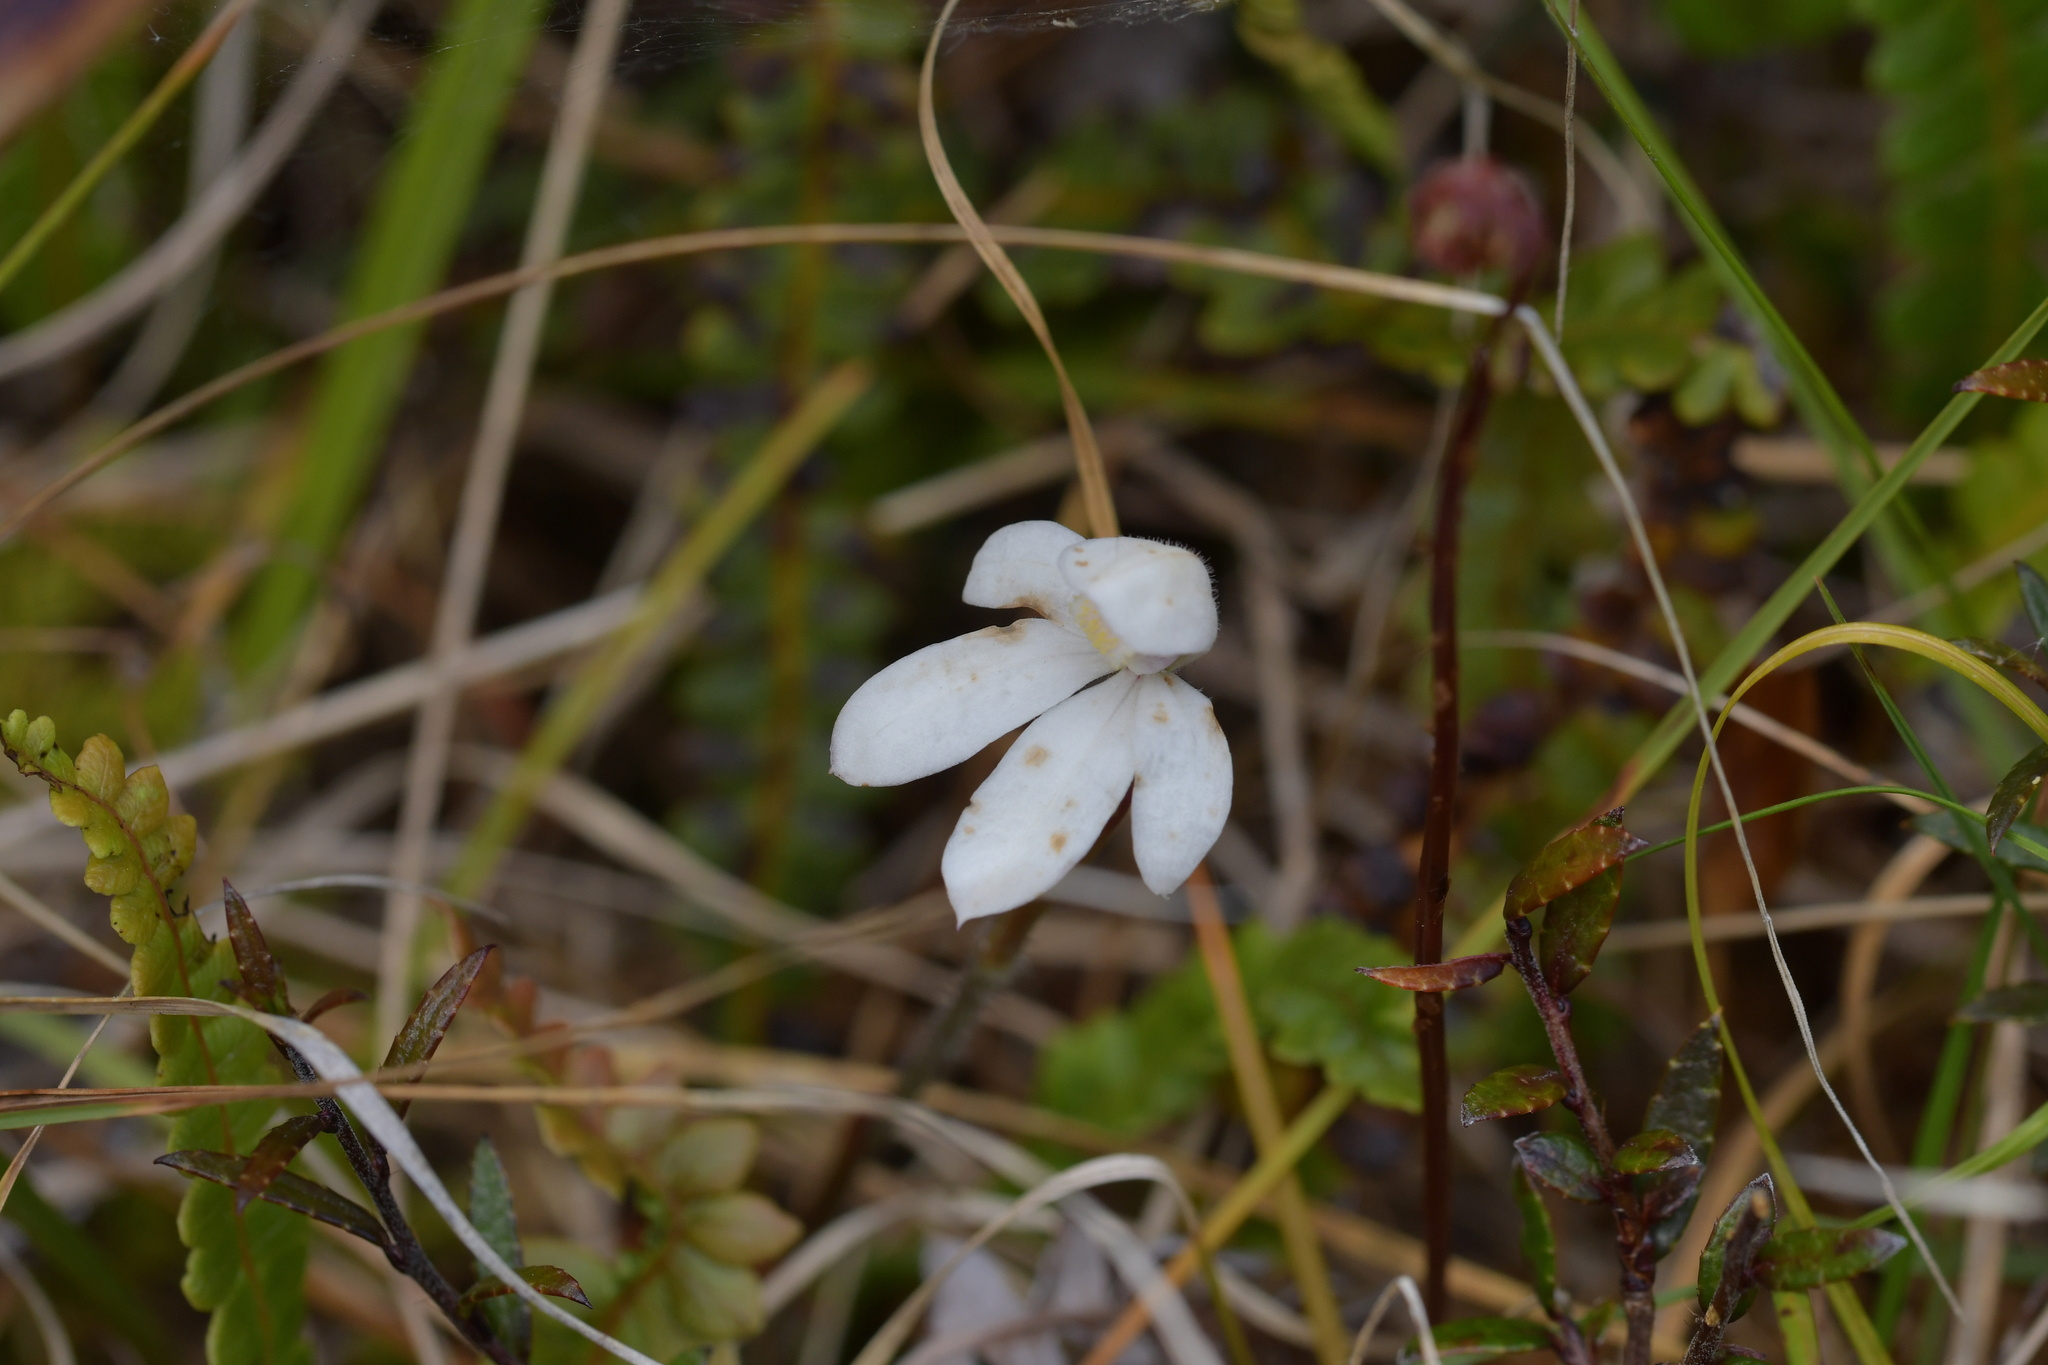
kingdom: Plantae
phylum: Tracheophyta
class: Liliopsida
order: Asparagales
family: Orchidaceae
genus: Caladenia
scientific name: Caladenia lyallii
